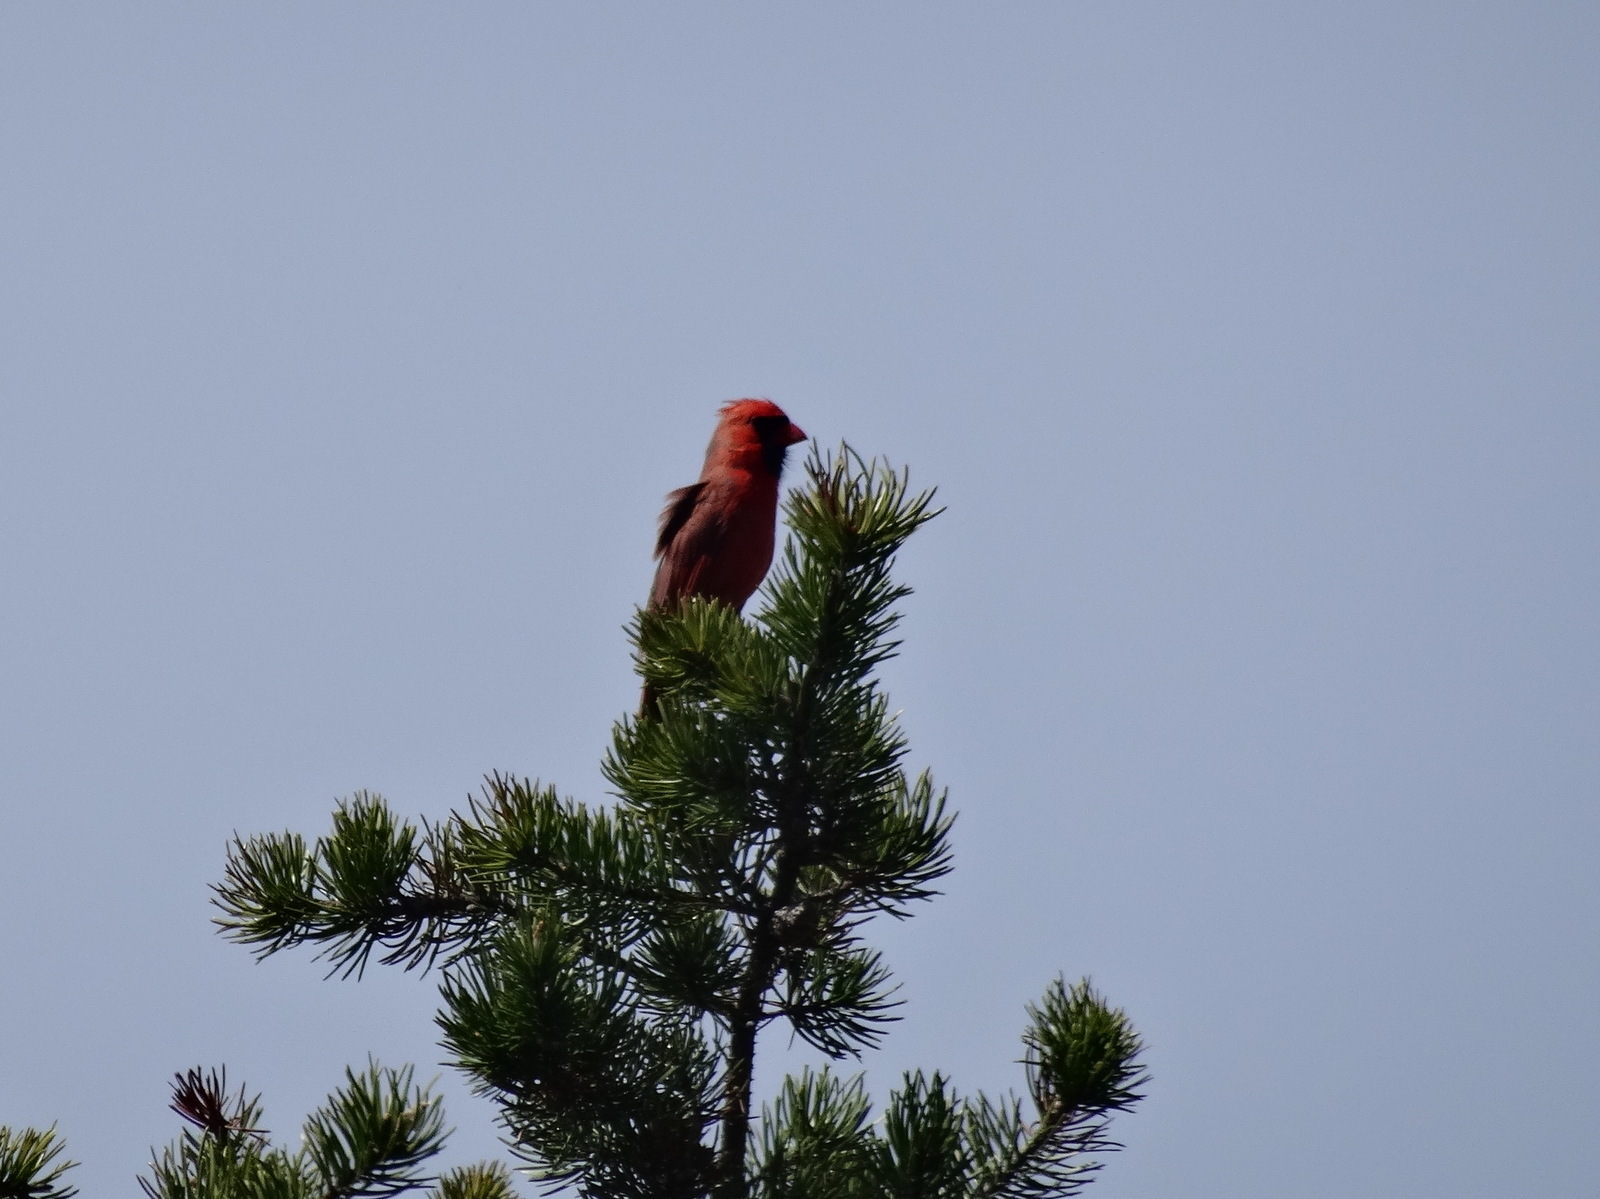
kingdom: Animalia
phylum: Chordata
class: Aves
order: Passeriformes
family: Cardinalidae
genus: Cardinalis
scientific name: Cardinalis cardinalis
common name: Northern cardinal
